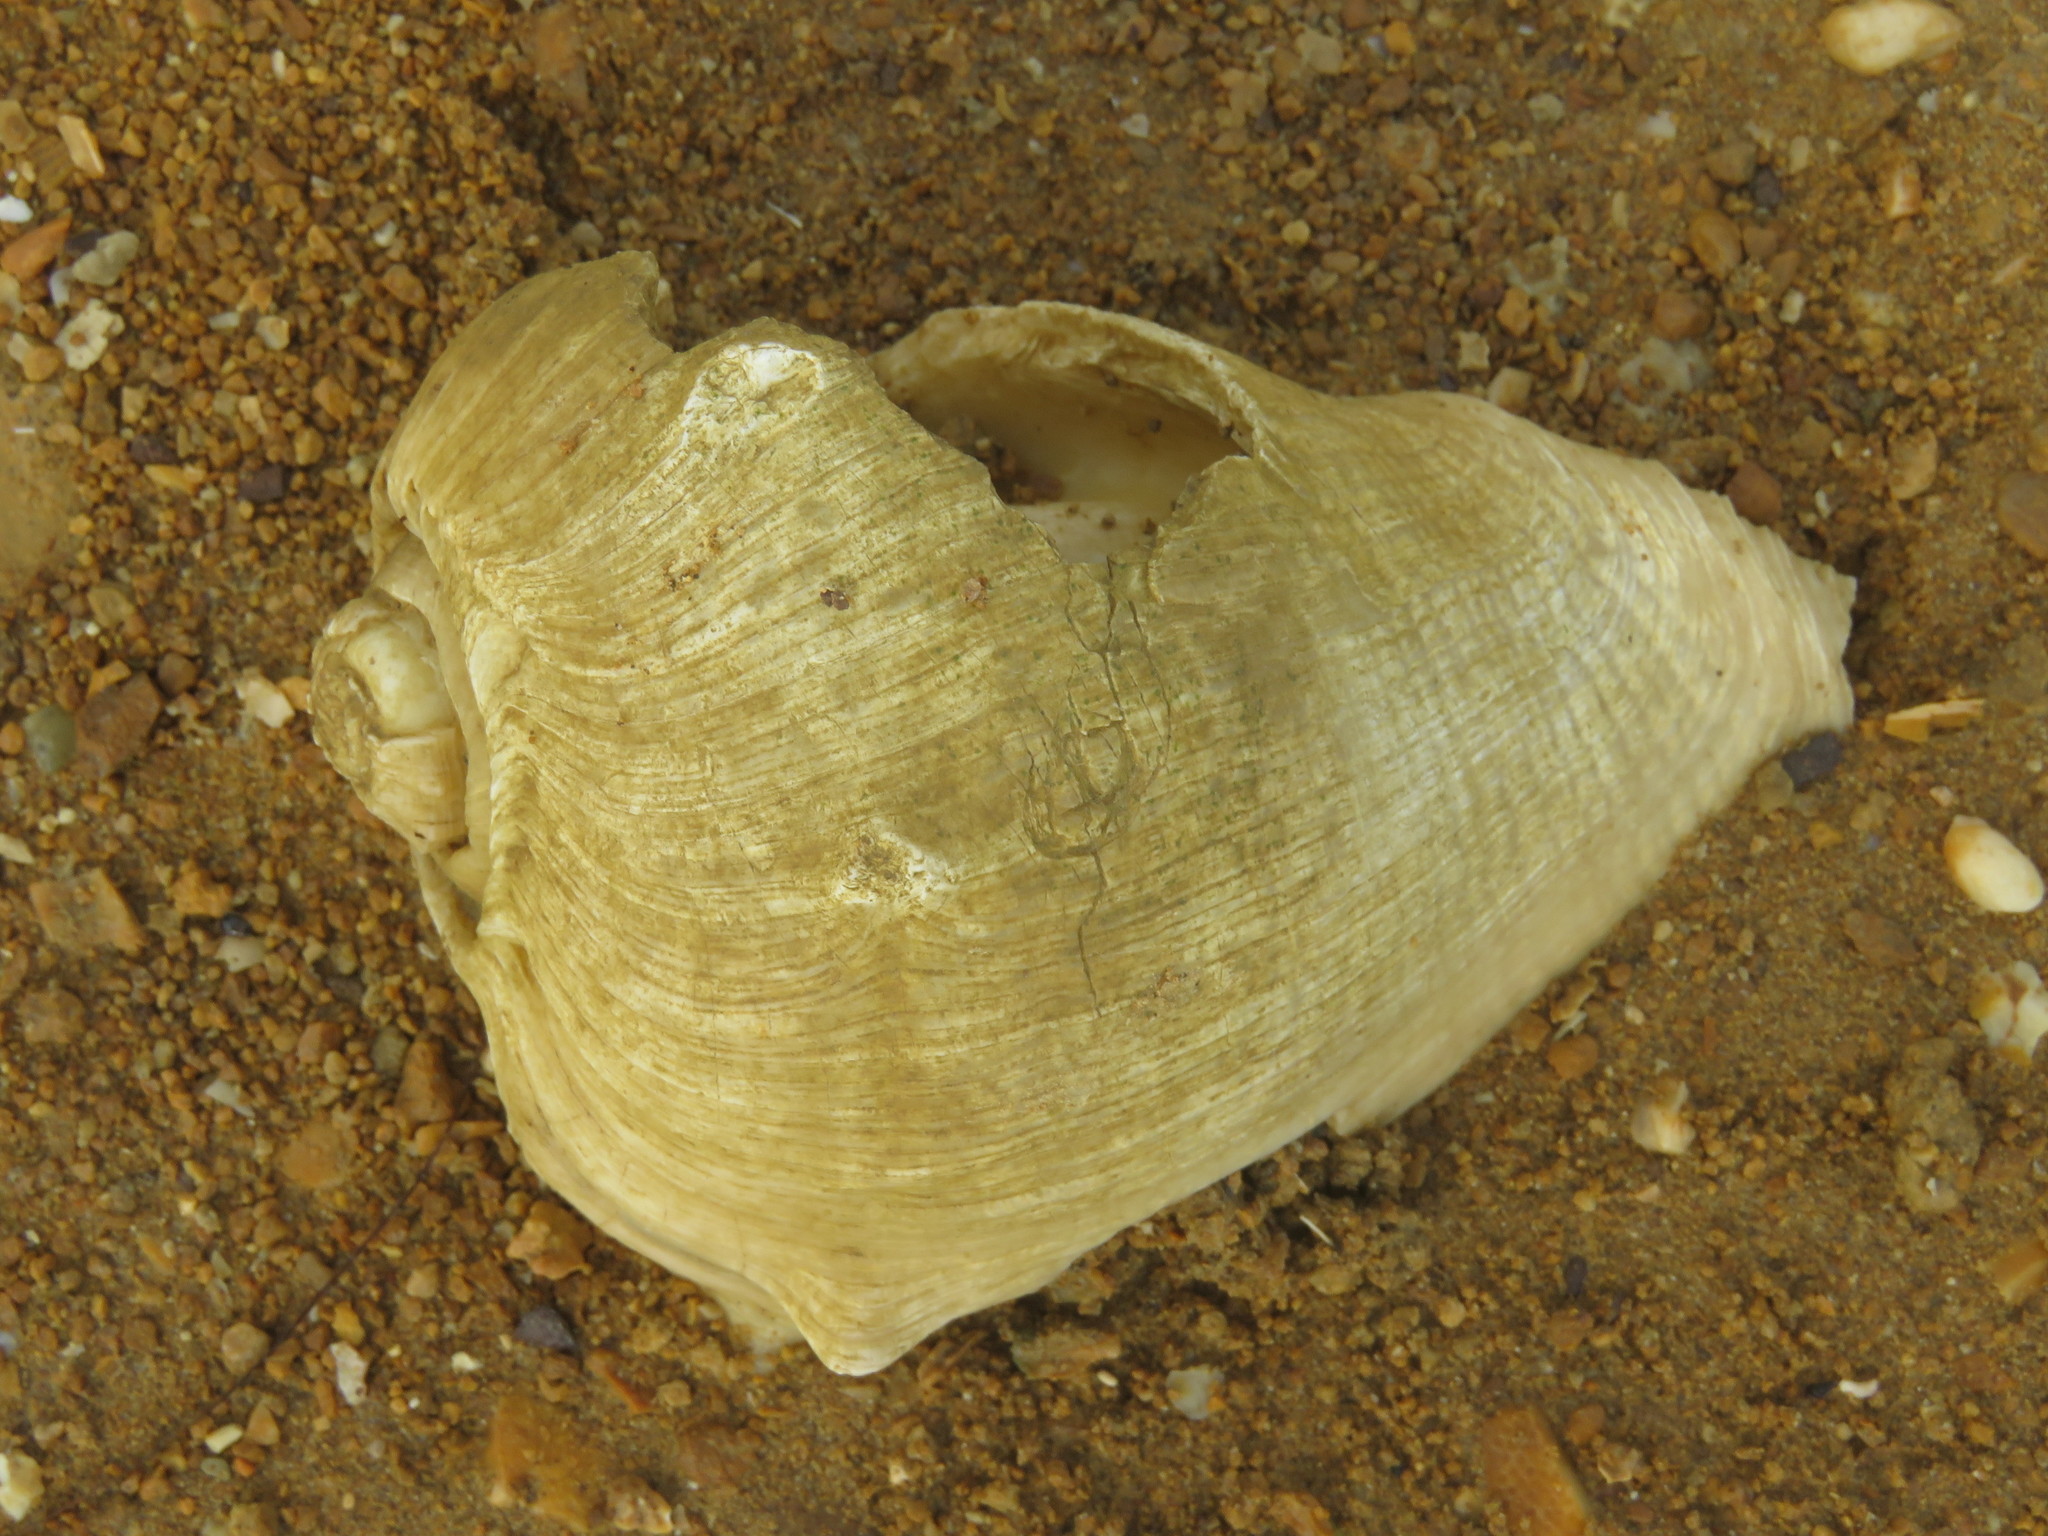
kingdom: Animalia
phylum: Mollusca
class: Gastropoda
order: Neogastropoda
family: Melongenidae
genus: Melongena
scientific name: Melongena melongena
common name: West indian crown conch
